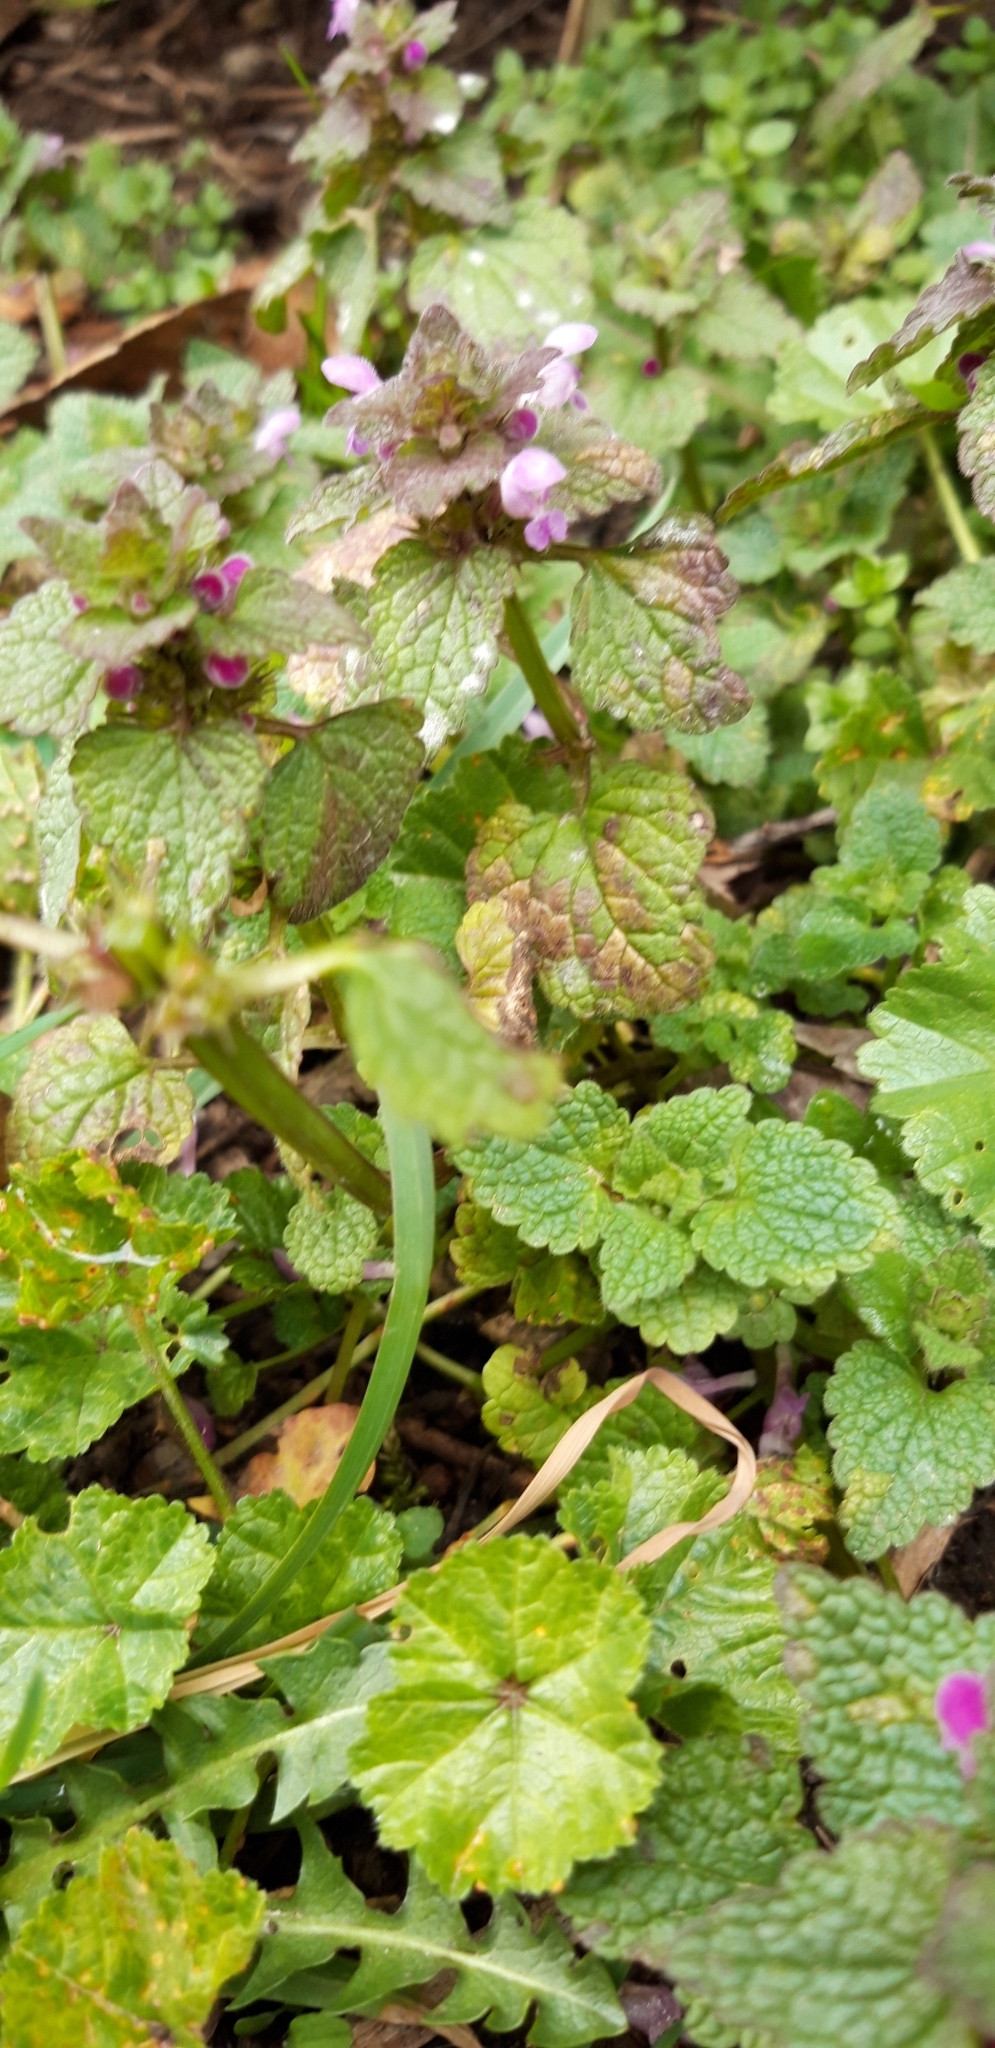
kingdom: Plantae
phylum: Tracheophyta
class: Magnoliopsida
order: Lamiales
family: Lamiaceae
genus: Lamium
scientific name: Lamium purpureum
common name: Red dead-nettle
